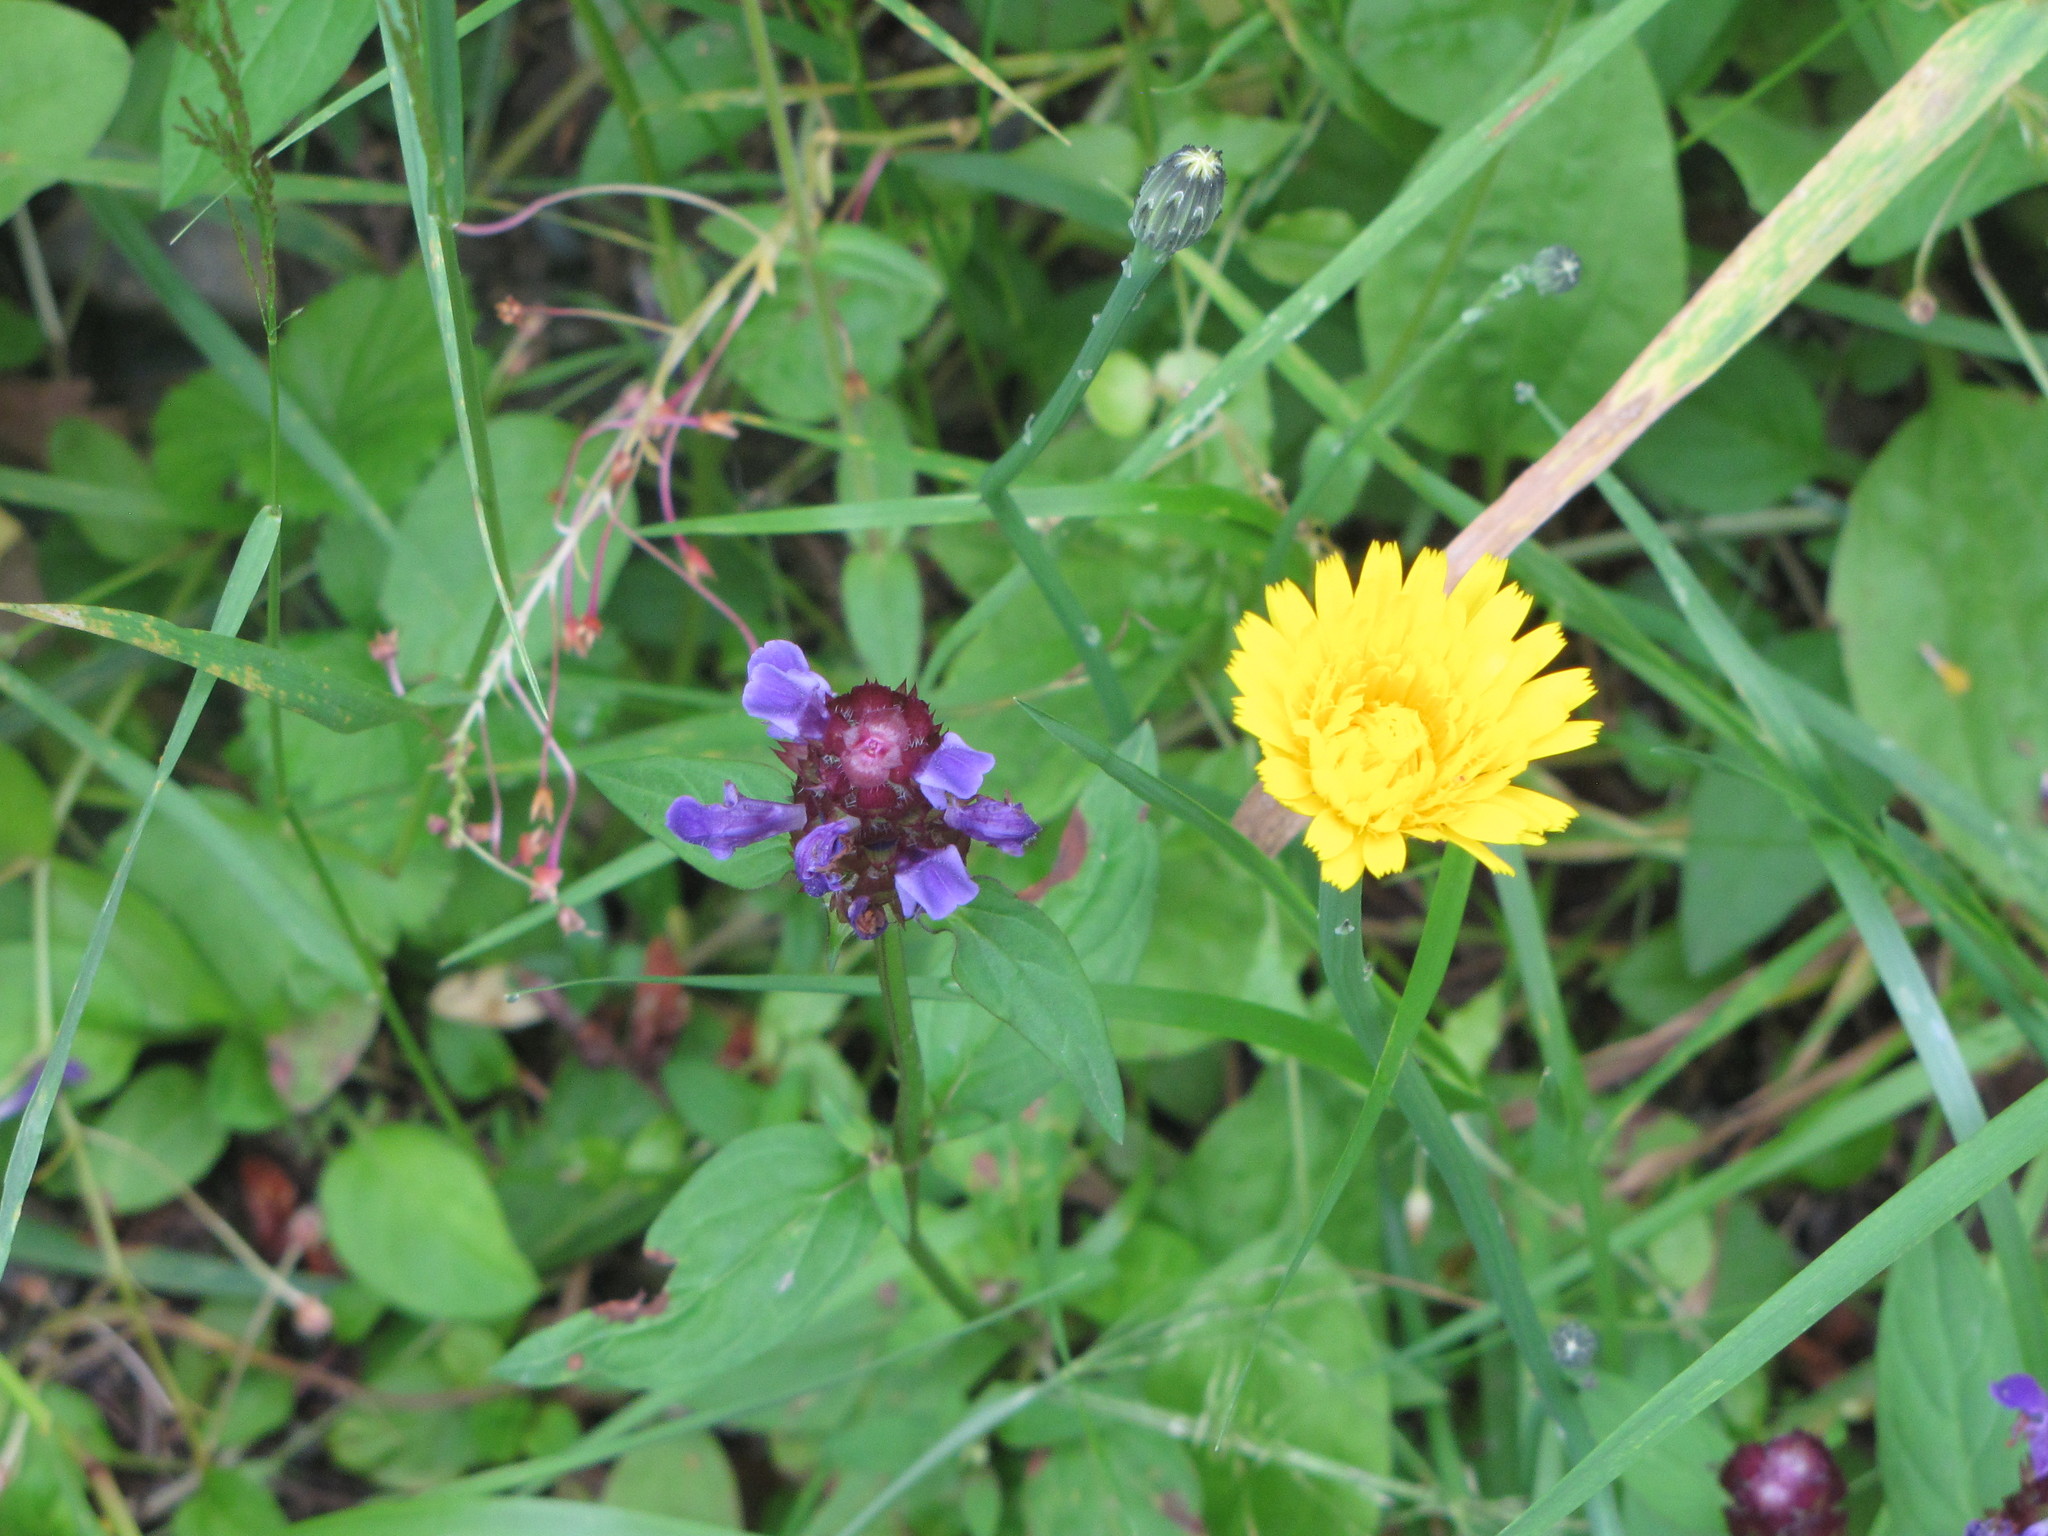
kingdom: Plantae
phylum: Tracheophyta
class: Magnoliopsida
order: Asterales
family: Asteraceae
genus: Hypochaeris
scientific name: Hypochaeris radicata
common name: Flatweed
